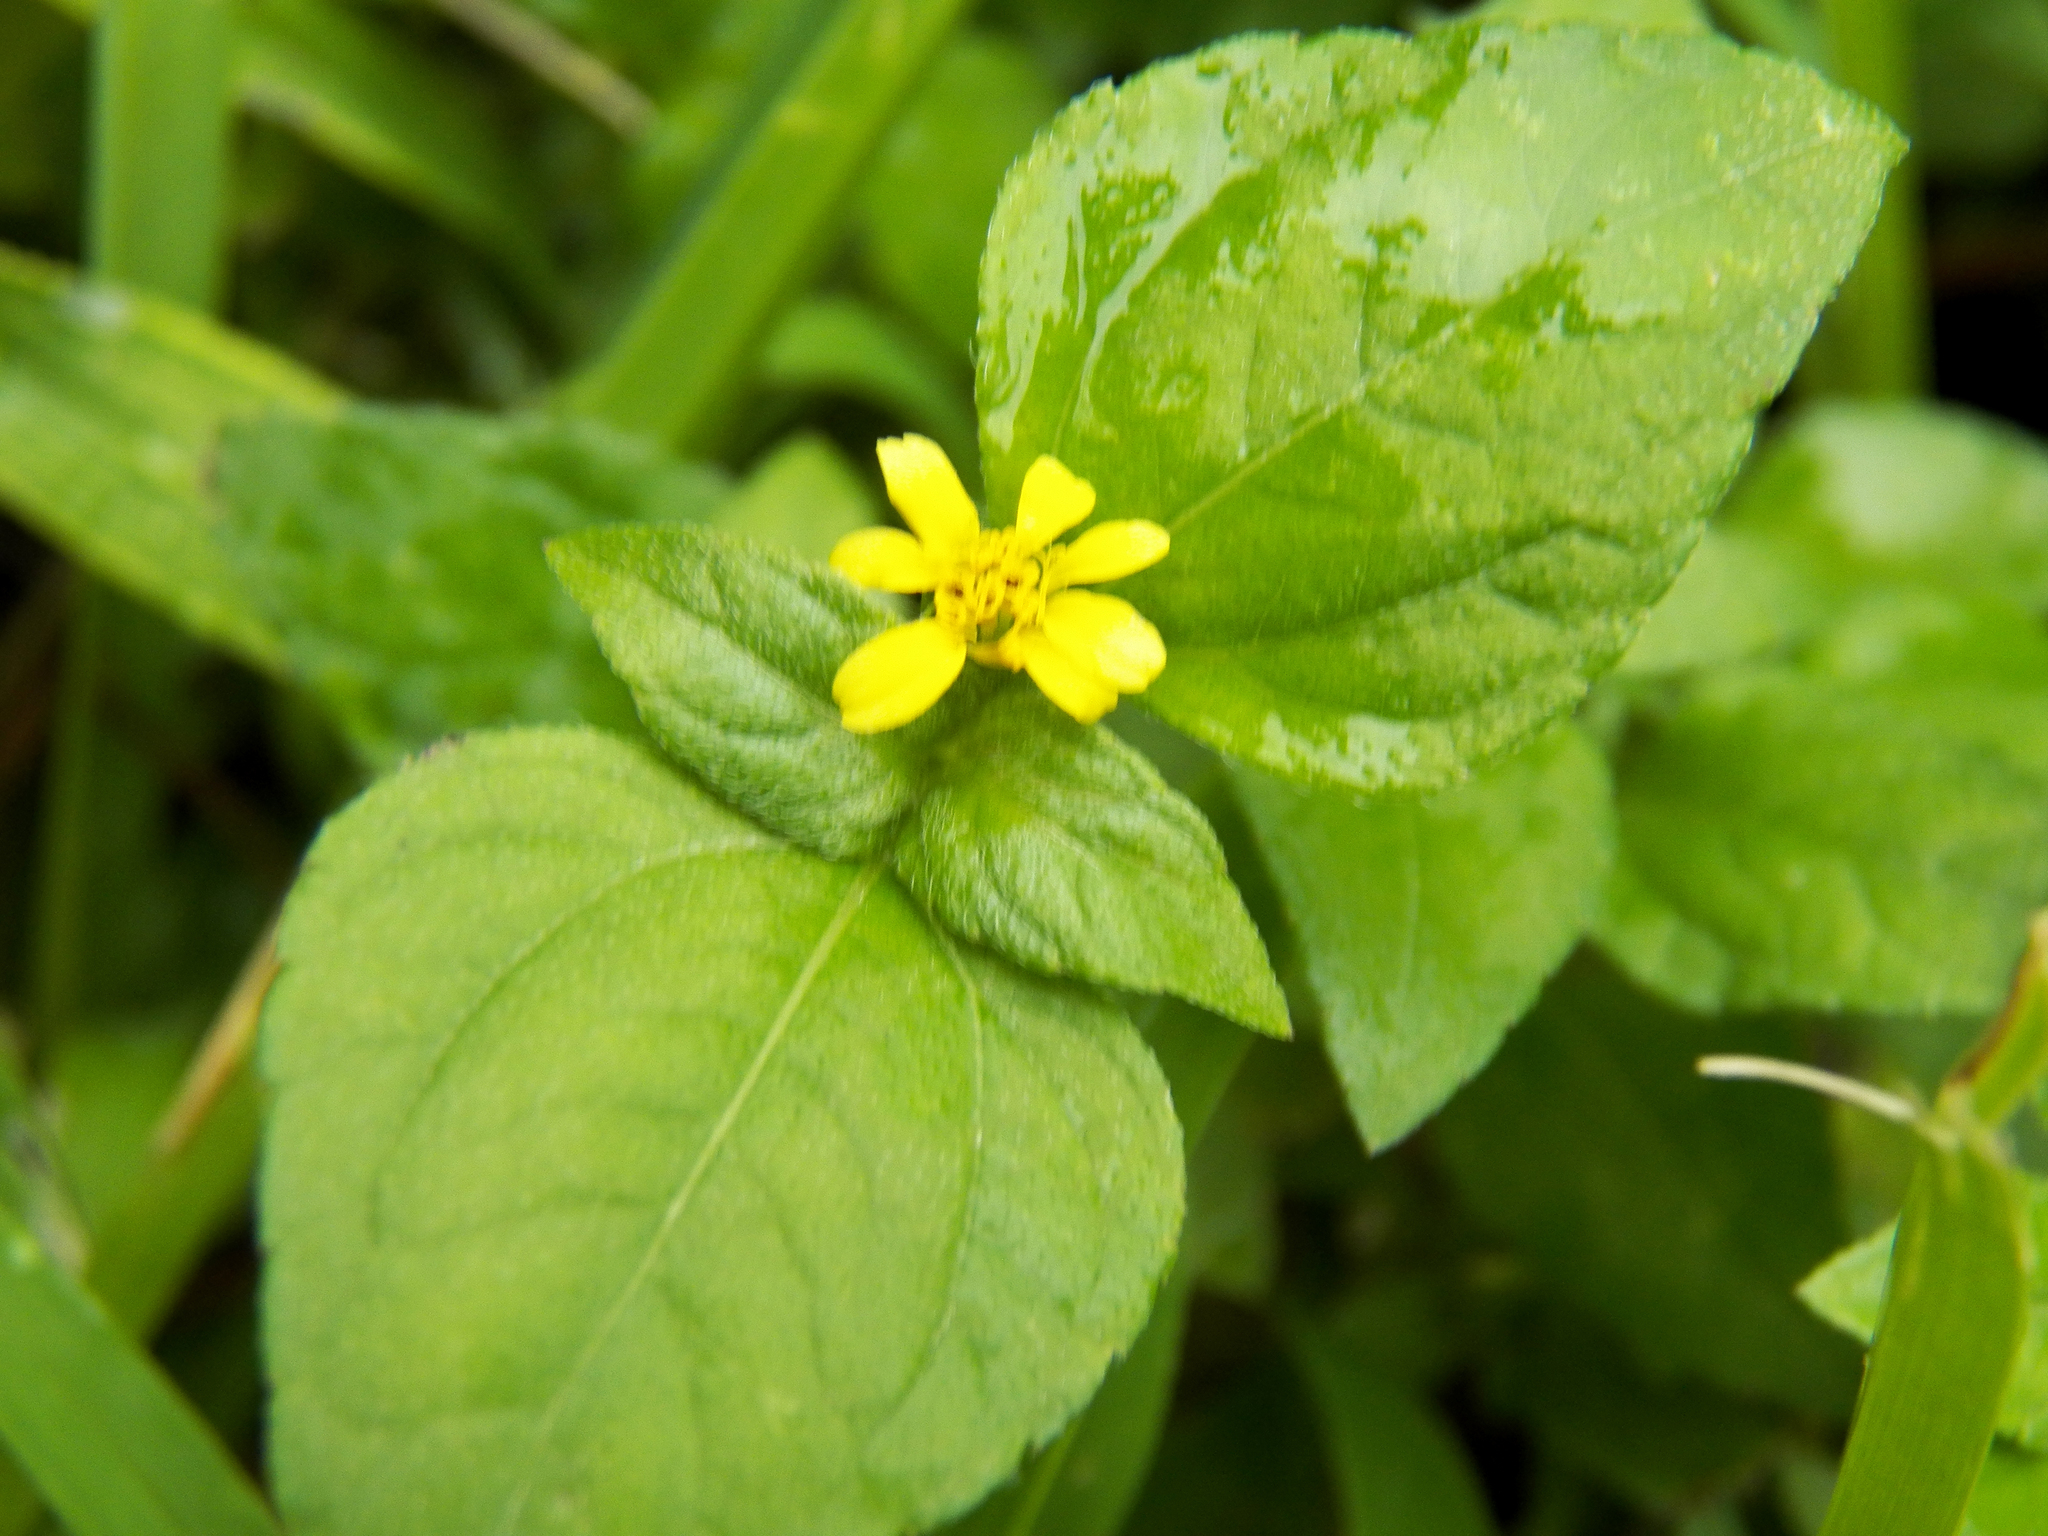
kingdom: Plantae
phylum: Tracheophyta
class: Magnoliopsida
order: Asterales
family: Asteraceae
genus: Calyptocarpus
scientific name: Calyptocarpus vialis
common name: Straggler daisy
